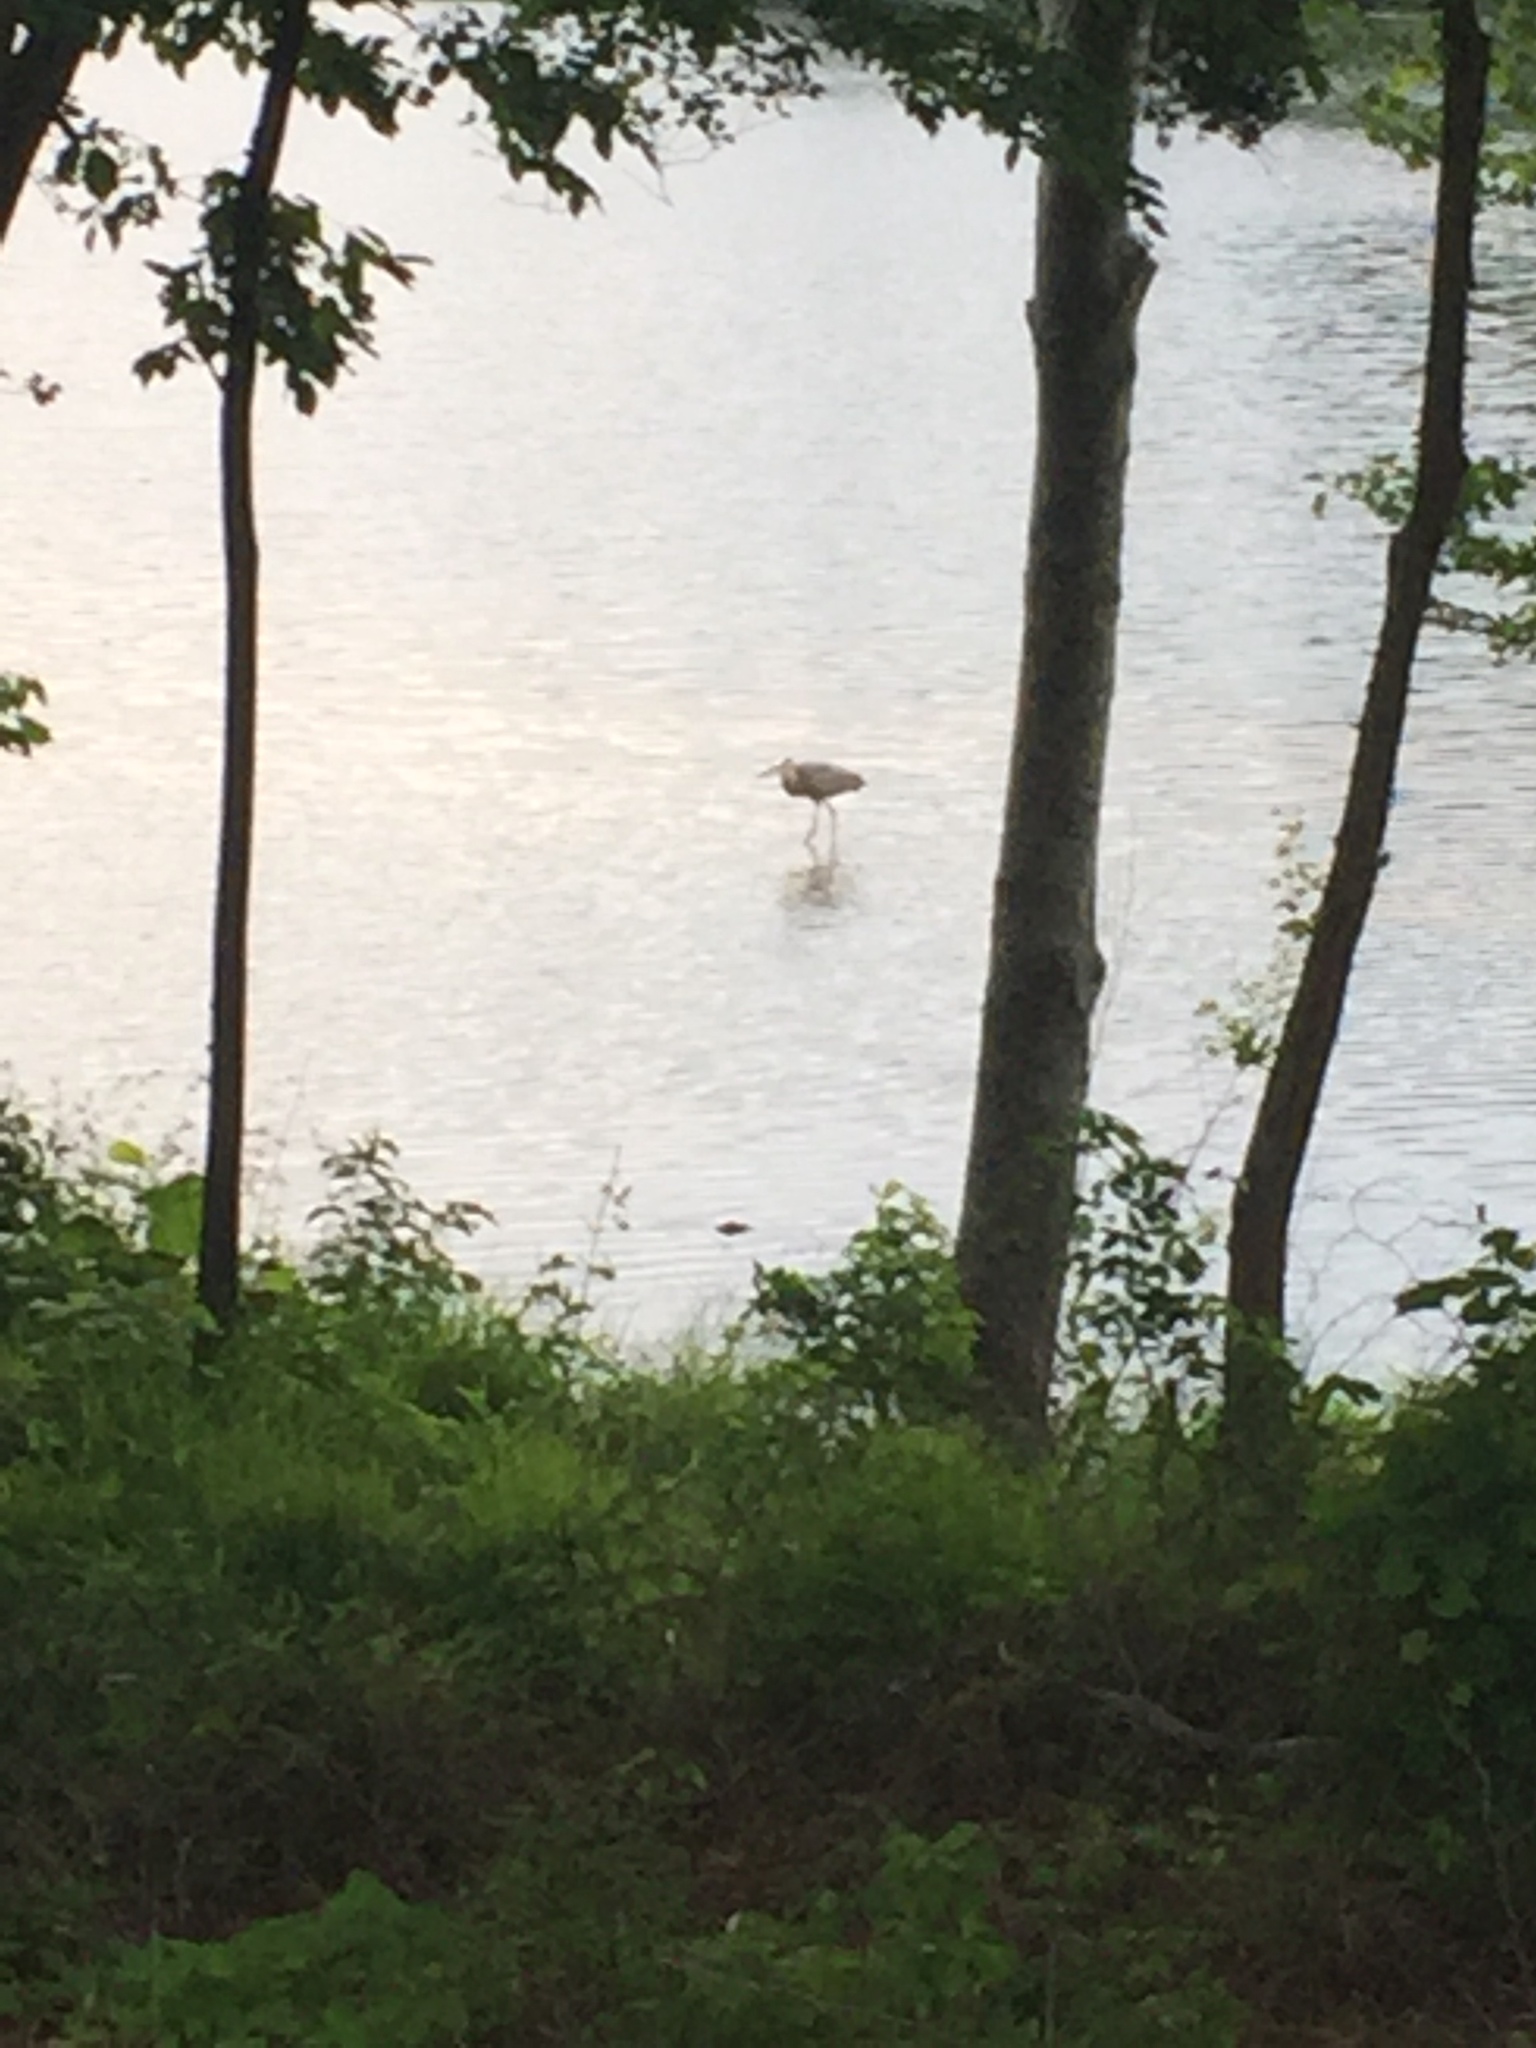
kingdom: Animalia
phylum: Chordata
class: Aves
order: Pelecaniformes
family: Ardeidae
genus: Ardea
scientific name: Ardea herodias
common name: Great blue heron
